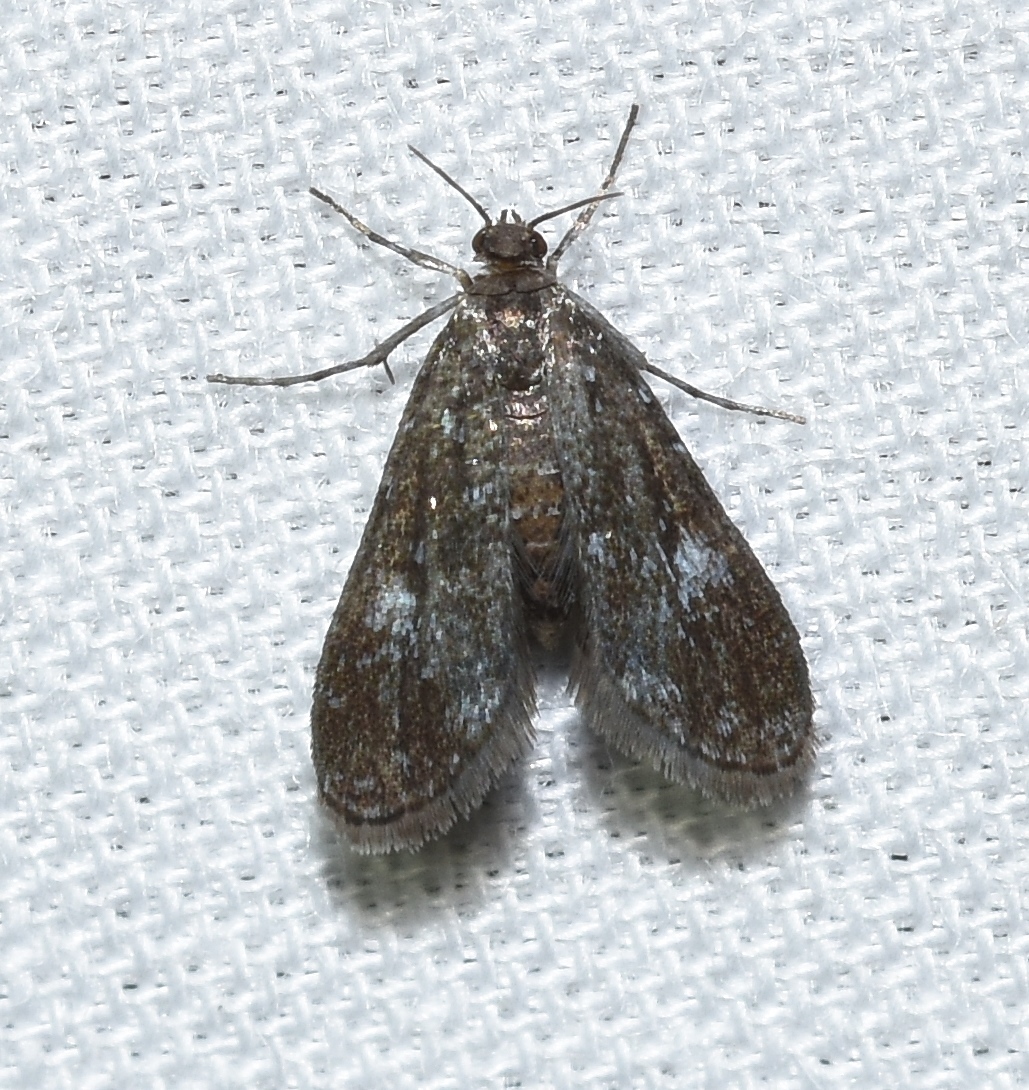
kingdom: Animalia
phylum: Arthropoda
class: Insecta
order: Lepidoptera
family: Crambidae
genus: Elophila
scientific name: Elophila tinealis
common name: Black duckweed moth
